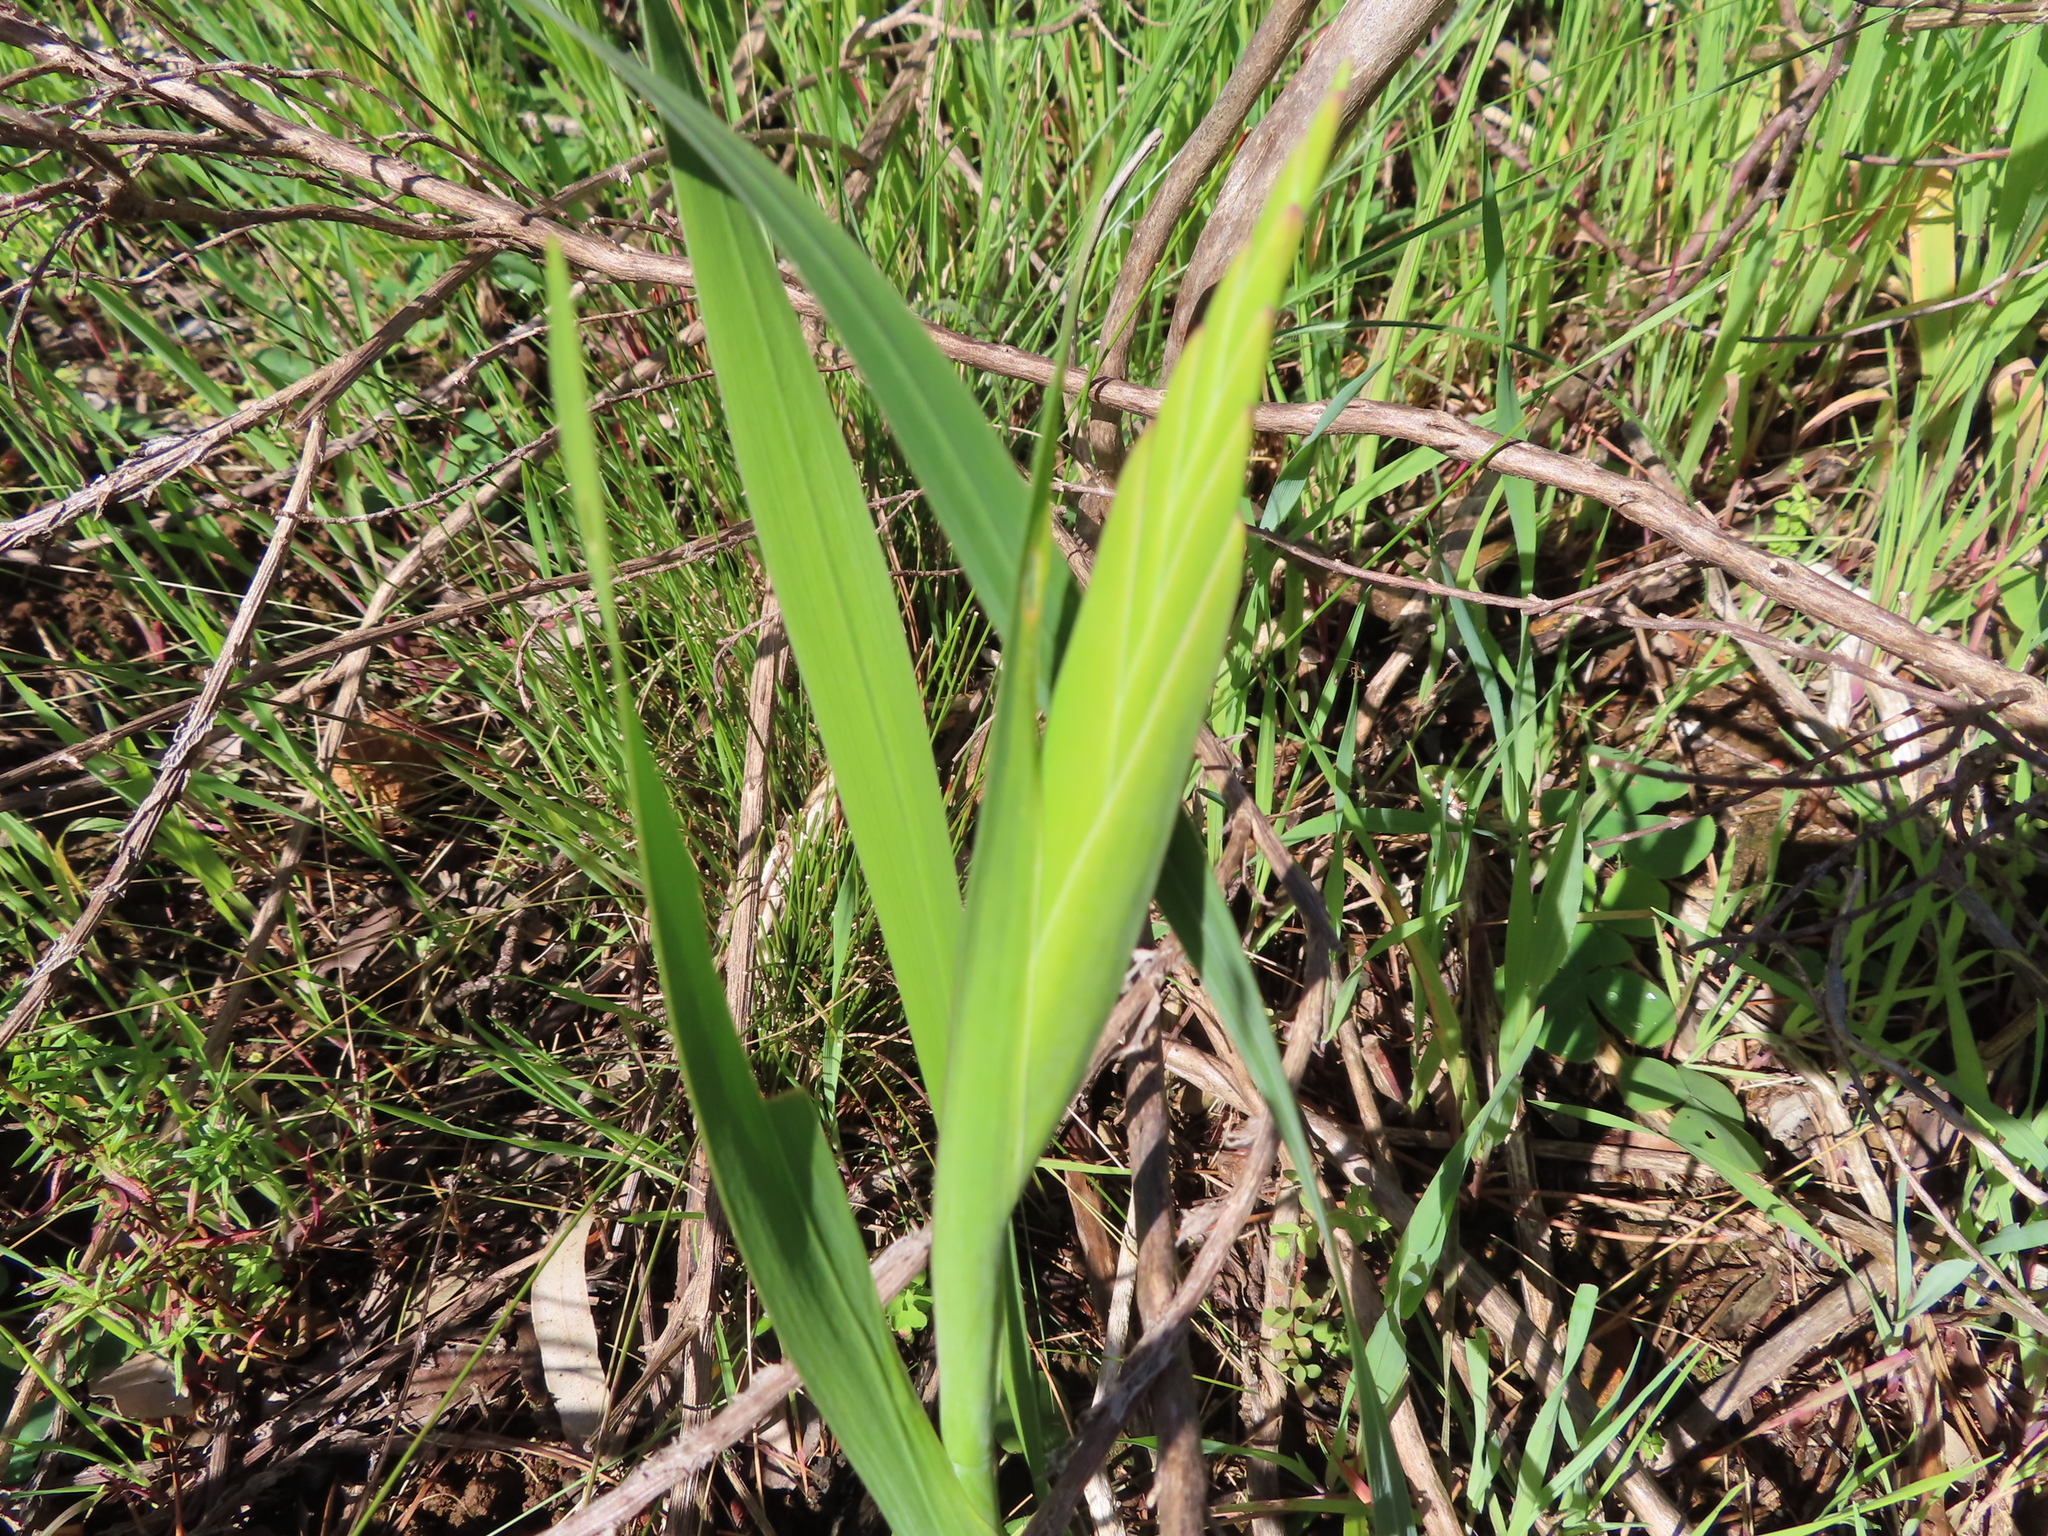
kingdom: Plantae
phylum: Tracheophyta
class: Liliopsida
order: Asparagales
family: Iridaceae
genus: Gladiolus
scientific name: Gladiolus carneus
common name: Painted-lady
